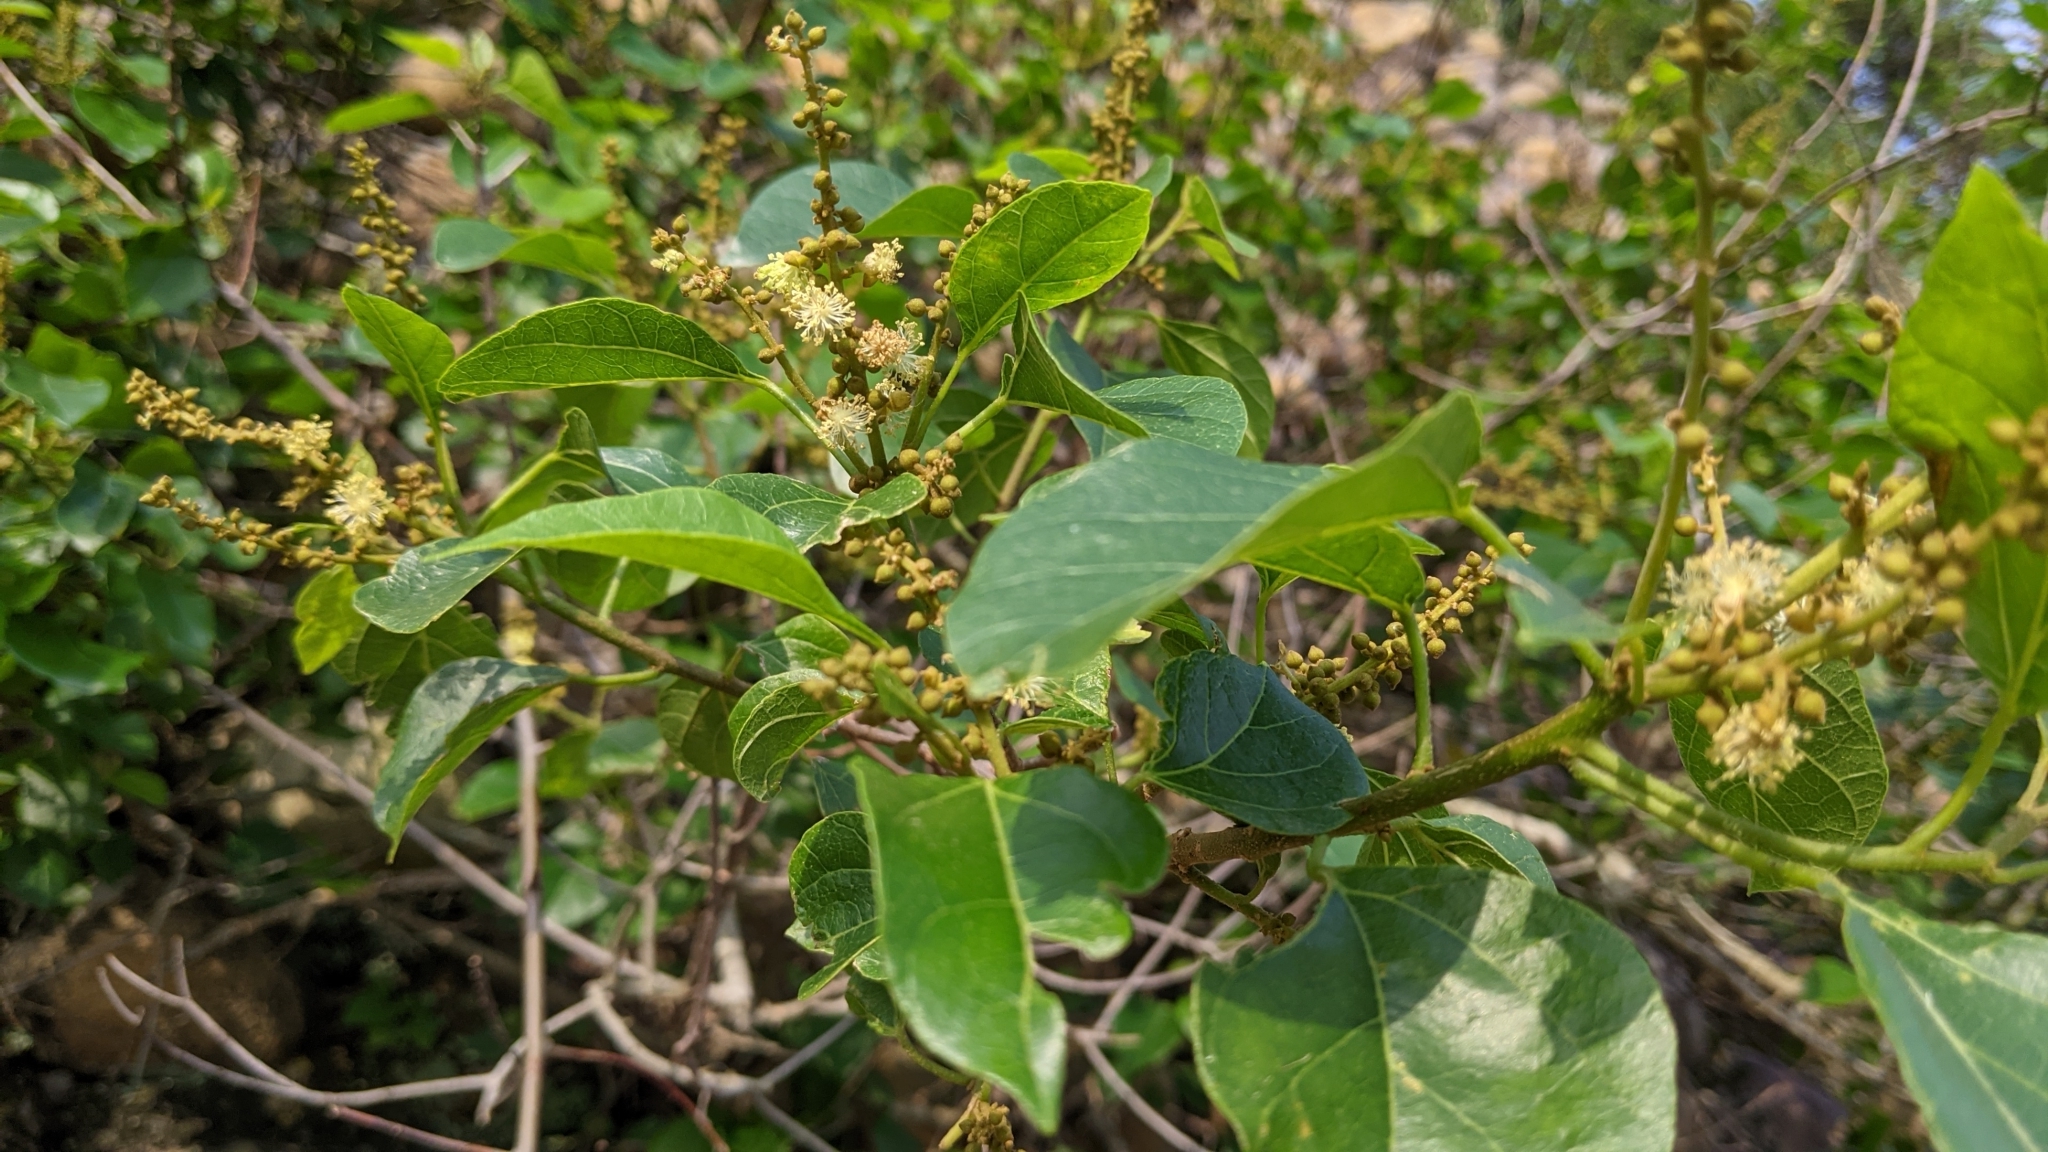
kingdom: Plantae
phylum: Tracheophyta
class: Magnoliopsida
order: Malpighiales
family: Euphorbiaceae
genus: Mallotus
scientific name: Mallotus repandus
